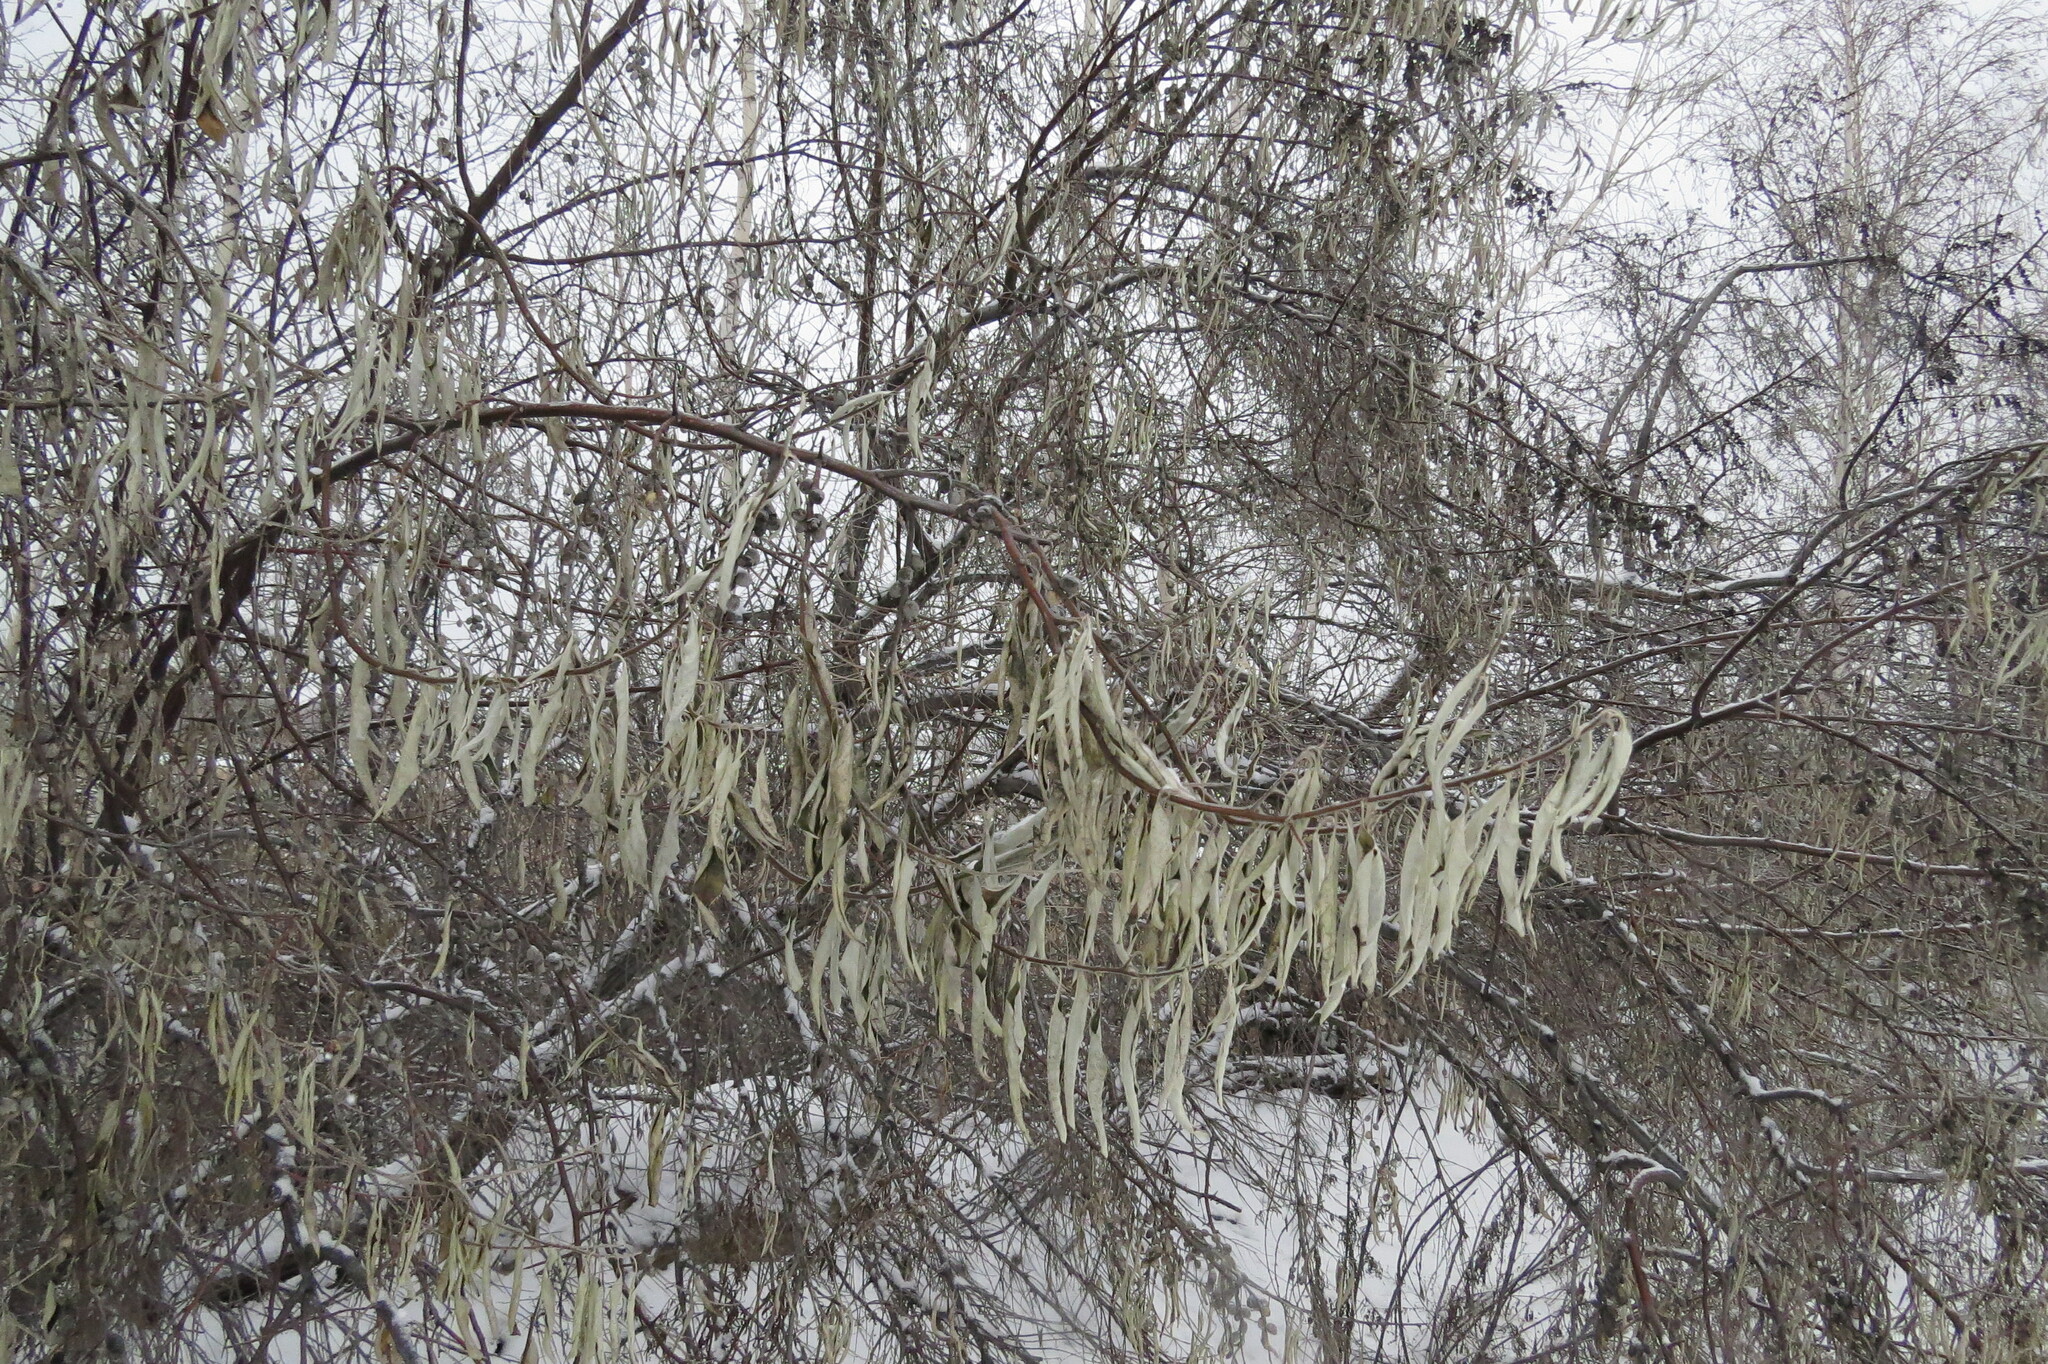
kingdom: Plantae
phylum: Tracheophyta
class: Magnoliopsida
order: Rosales
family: Elaeagnaceae
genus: Elaeagnus
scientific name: Elaeagnus angustifolia
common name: Russian olive
